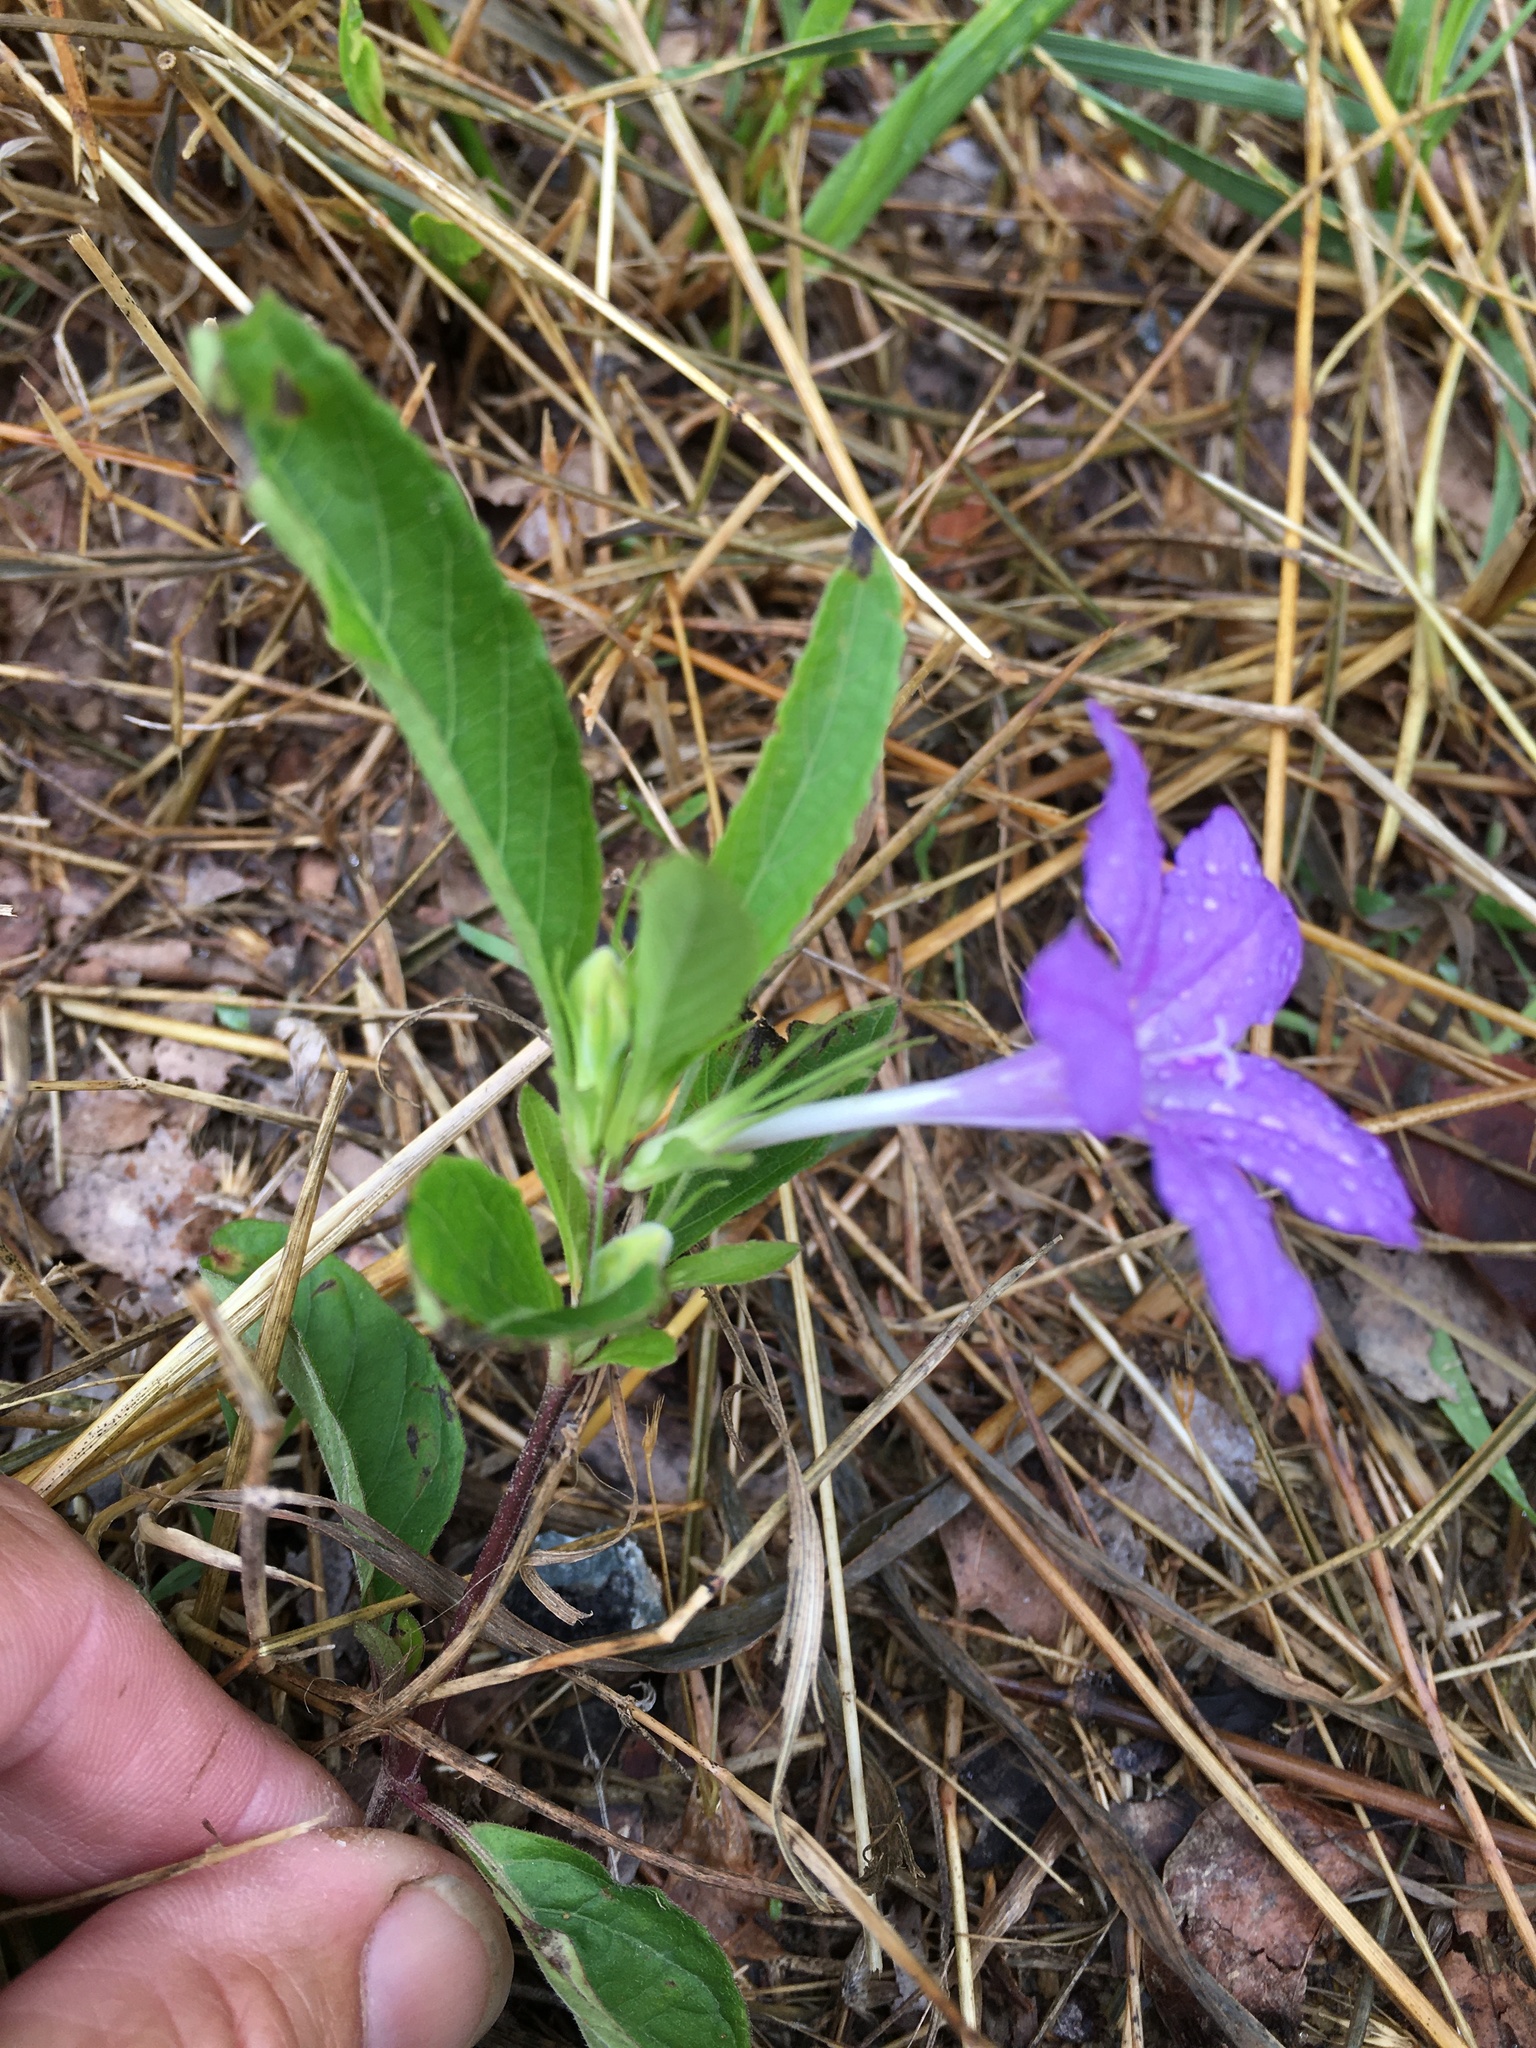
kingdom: Plantae
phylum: Tracheophyta
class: Magnoliopsida
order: Lamiales
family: Acanthaceae
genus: Ruellia
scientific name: Ruellia caroliniensis
